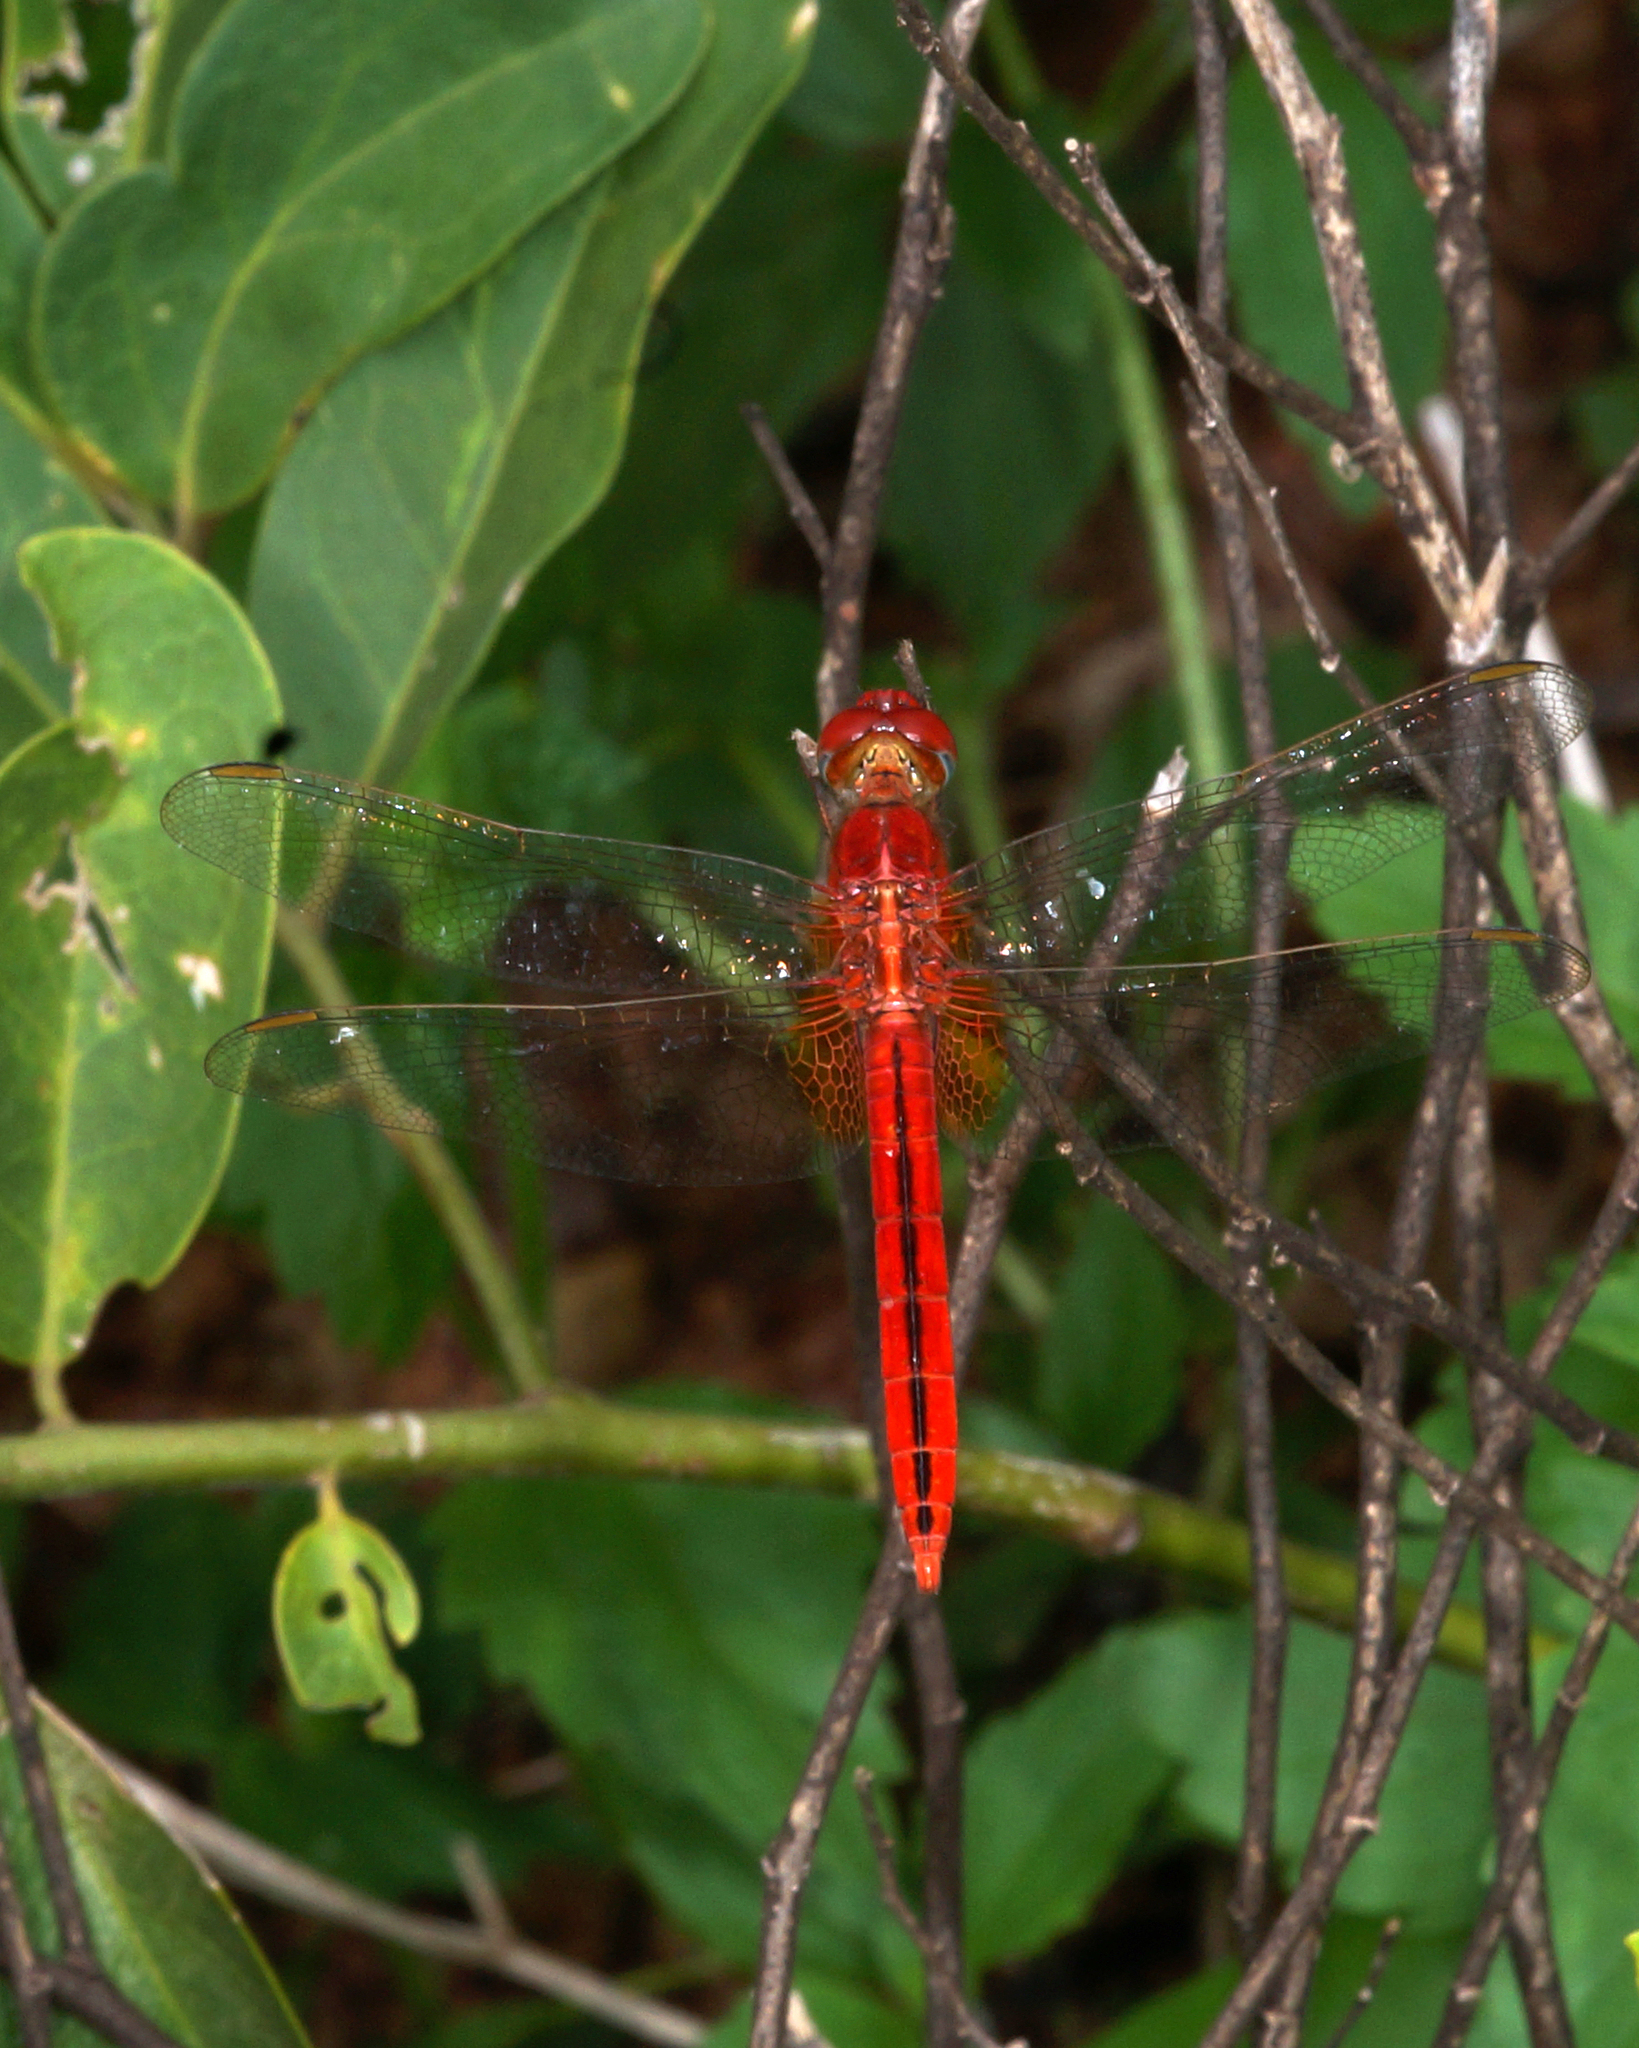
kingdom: Animalia
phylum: Arthropoda
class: Insecta
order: Odonata
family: Libellulidae
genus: Crocothemis
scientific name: Crocothemis servilia
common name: Scarlet skimmer
